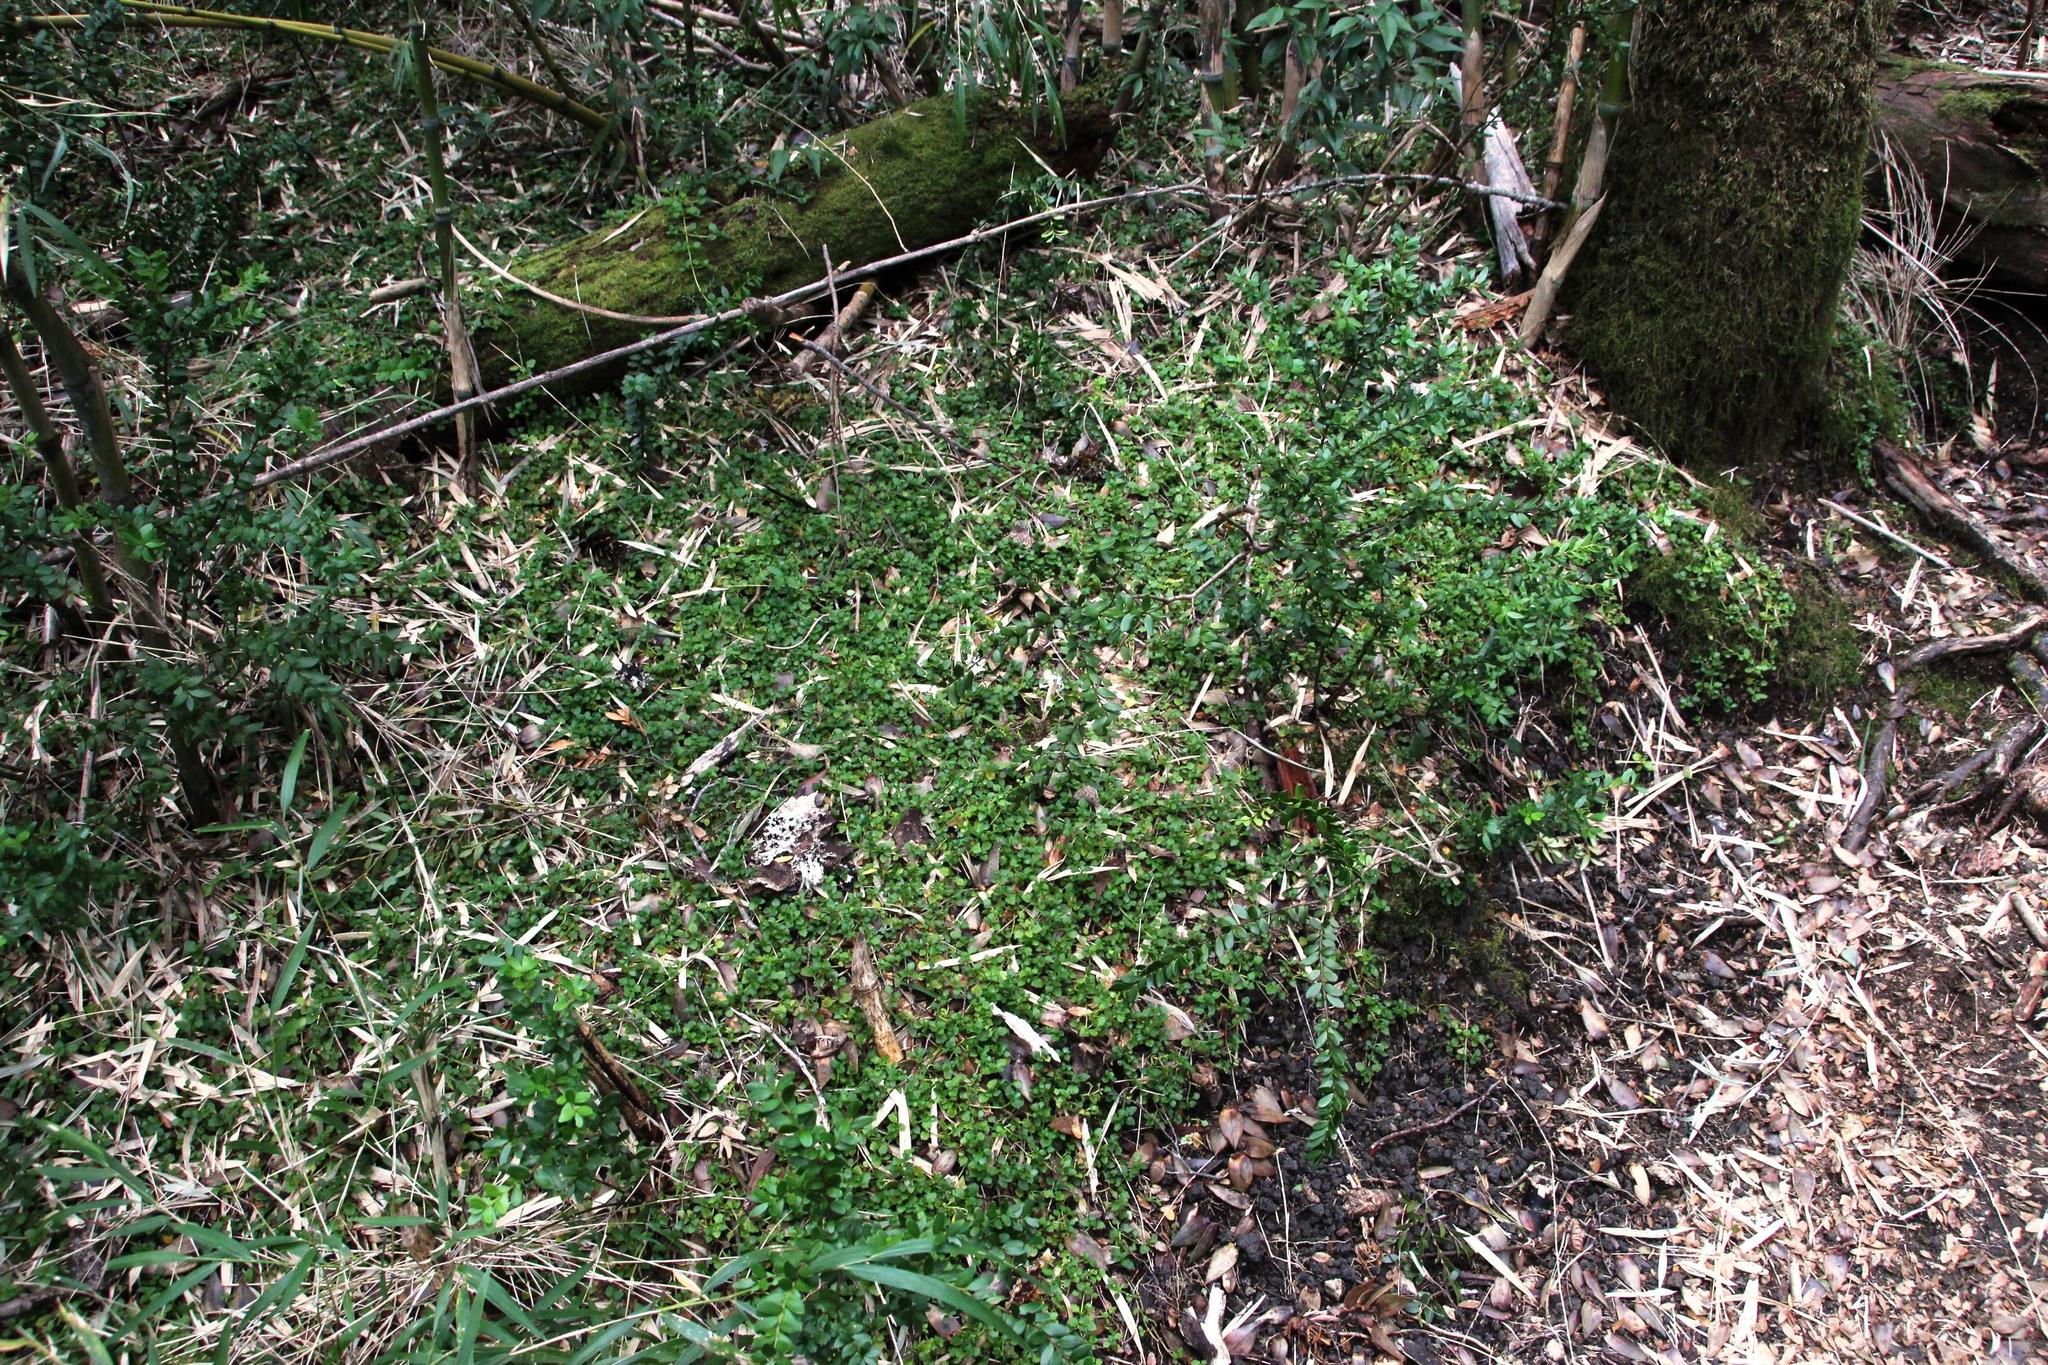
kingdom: Plantae
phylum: Tracheophyta
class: Magnoliopsida
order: Gentianales
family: Rubiaceae
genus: Nertera
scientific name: Nertera granadensis
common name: Beadplant
